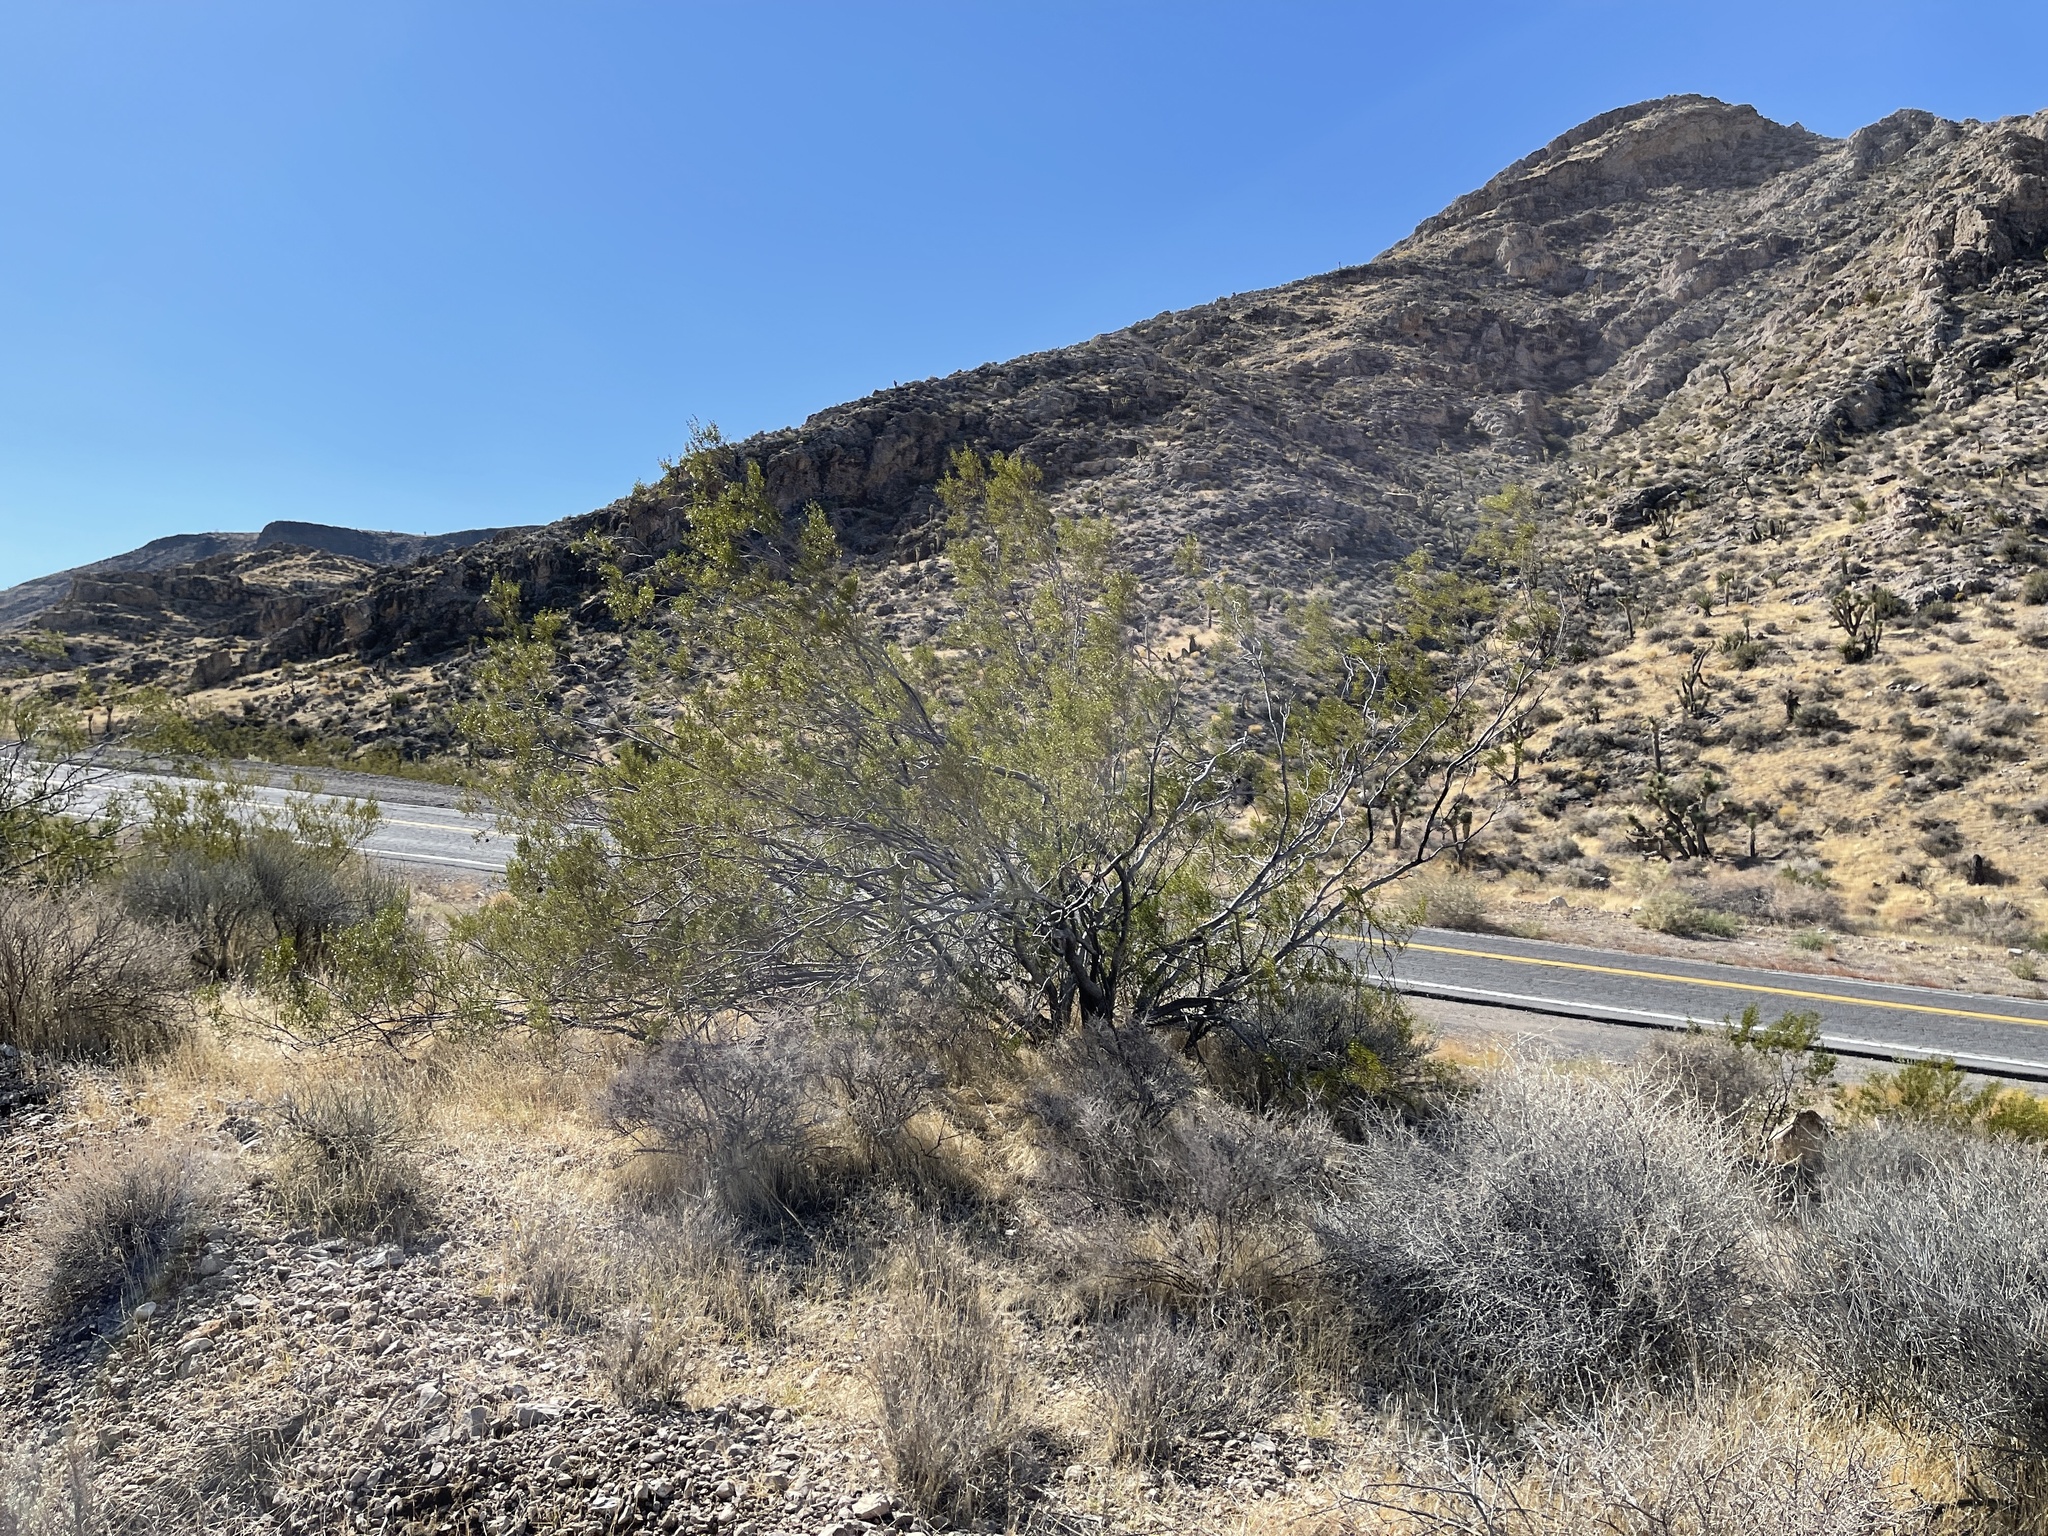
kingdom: Plantae
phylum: Tracheophyta
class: Magnoliopsida
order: Zygophyllales
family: Zygophyllaceae
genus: Larrea
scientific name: Larrea tridentata
